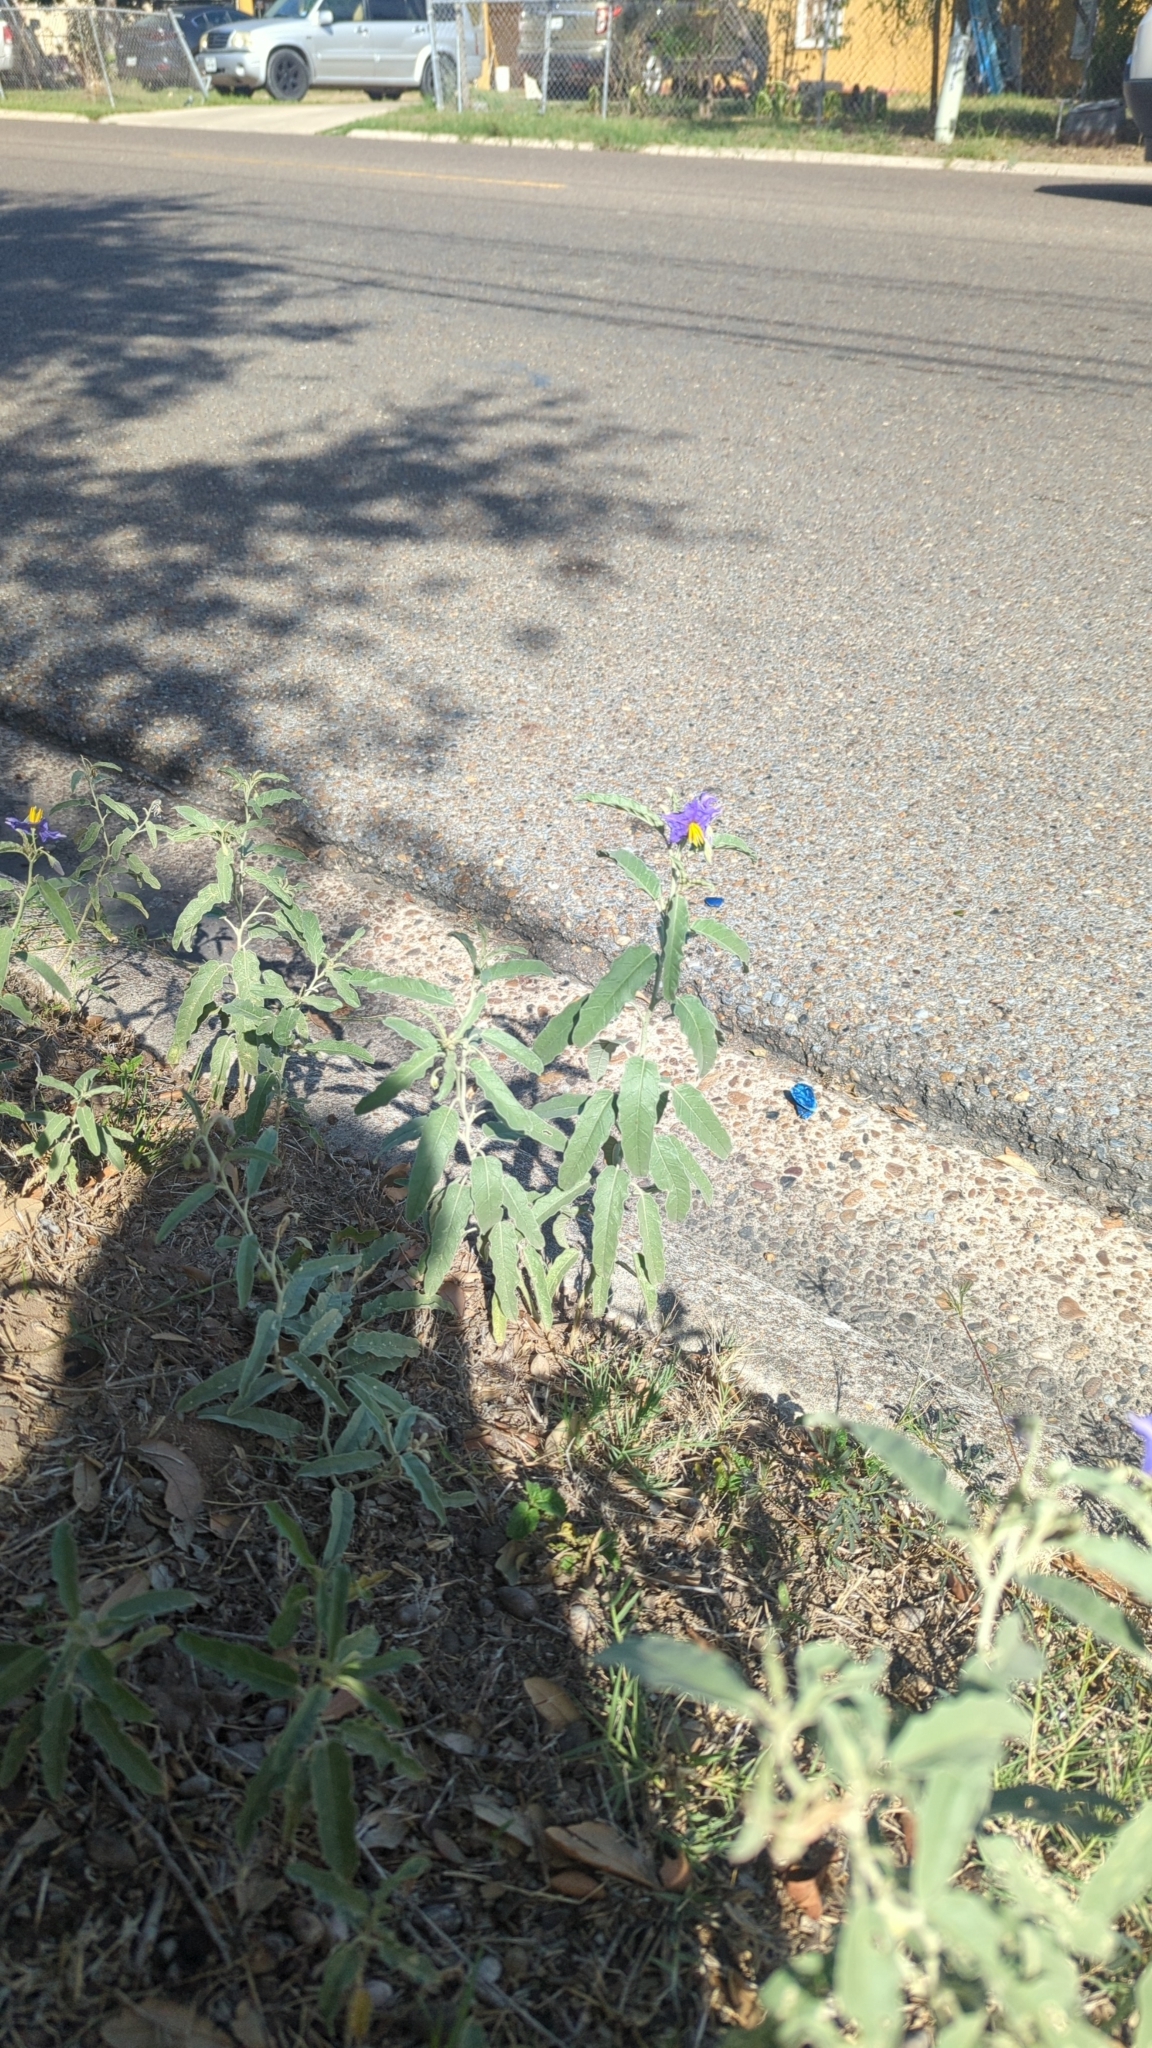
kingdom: Plantae
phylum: Tracheophyta
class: Magnoliopsida
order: Solanales
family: Solanaceae
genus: Solanum
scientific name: Solanum elaeagnifolium
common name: Silverleaf nightshade
